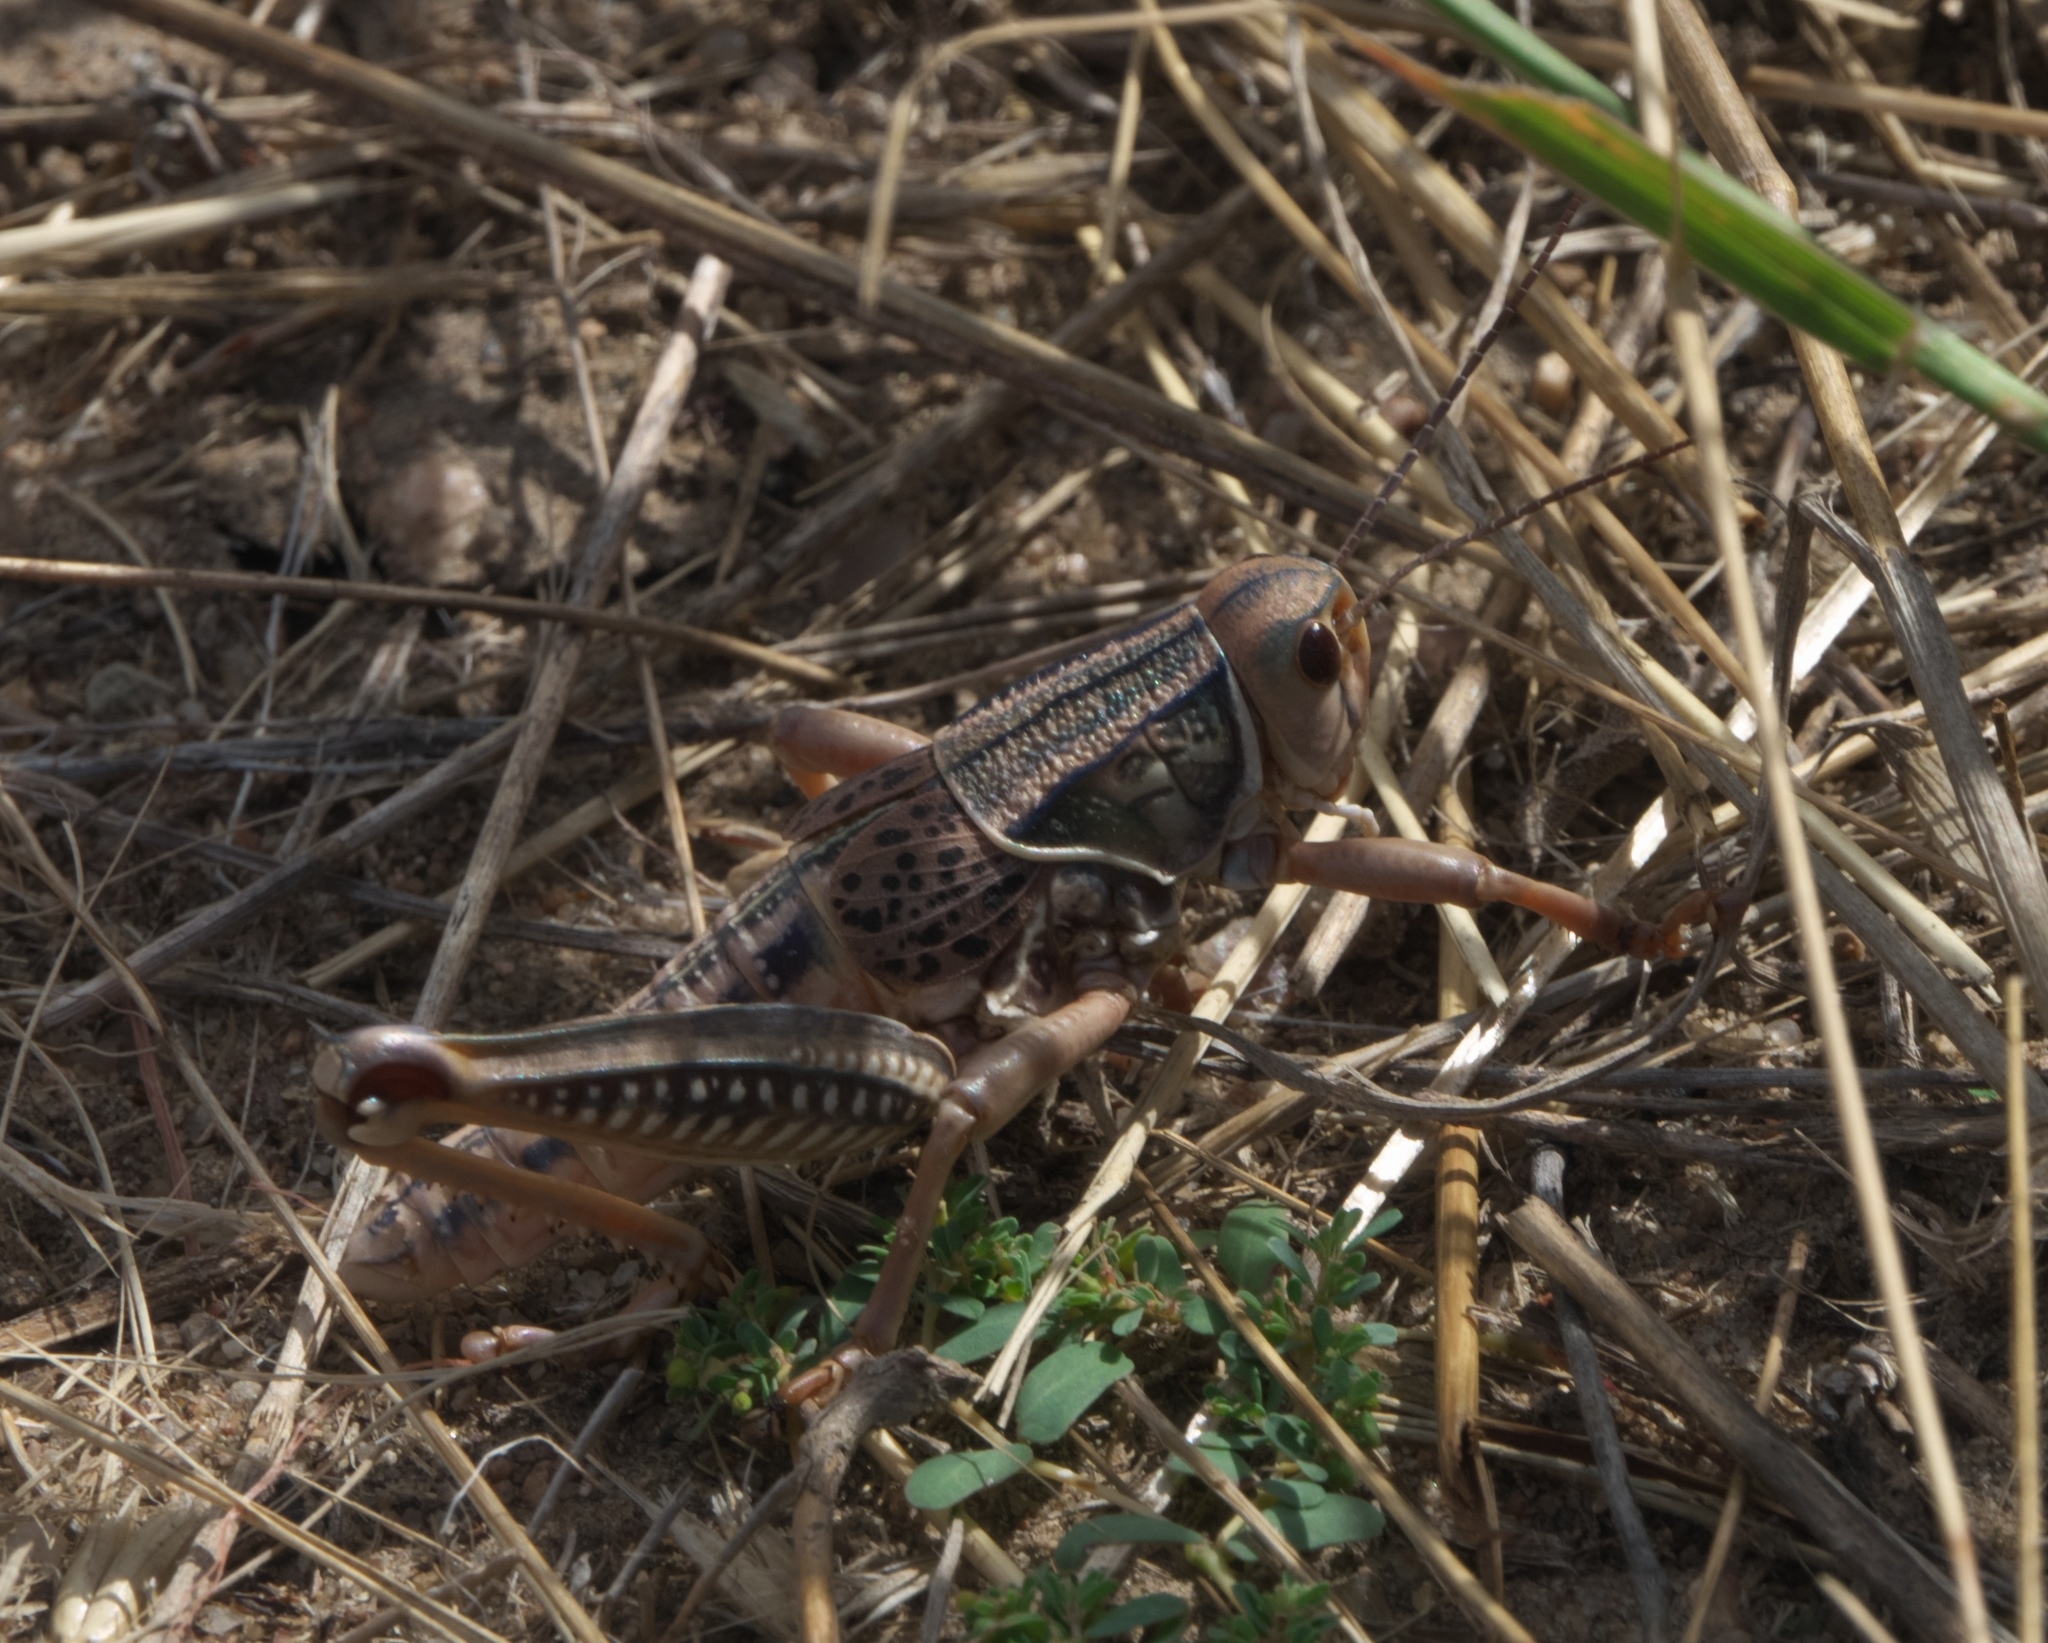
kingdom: Animalia
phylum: Arthropoda
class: Insecta
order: Orthoptera
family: Romaleidae
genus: Brachystola
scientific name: Brachystola magna
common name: Plains lubber grasshopper
